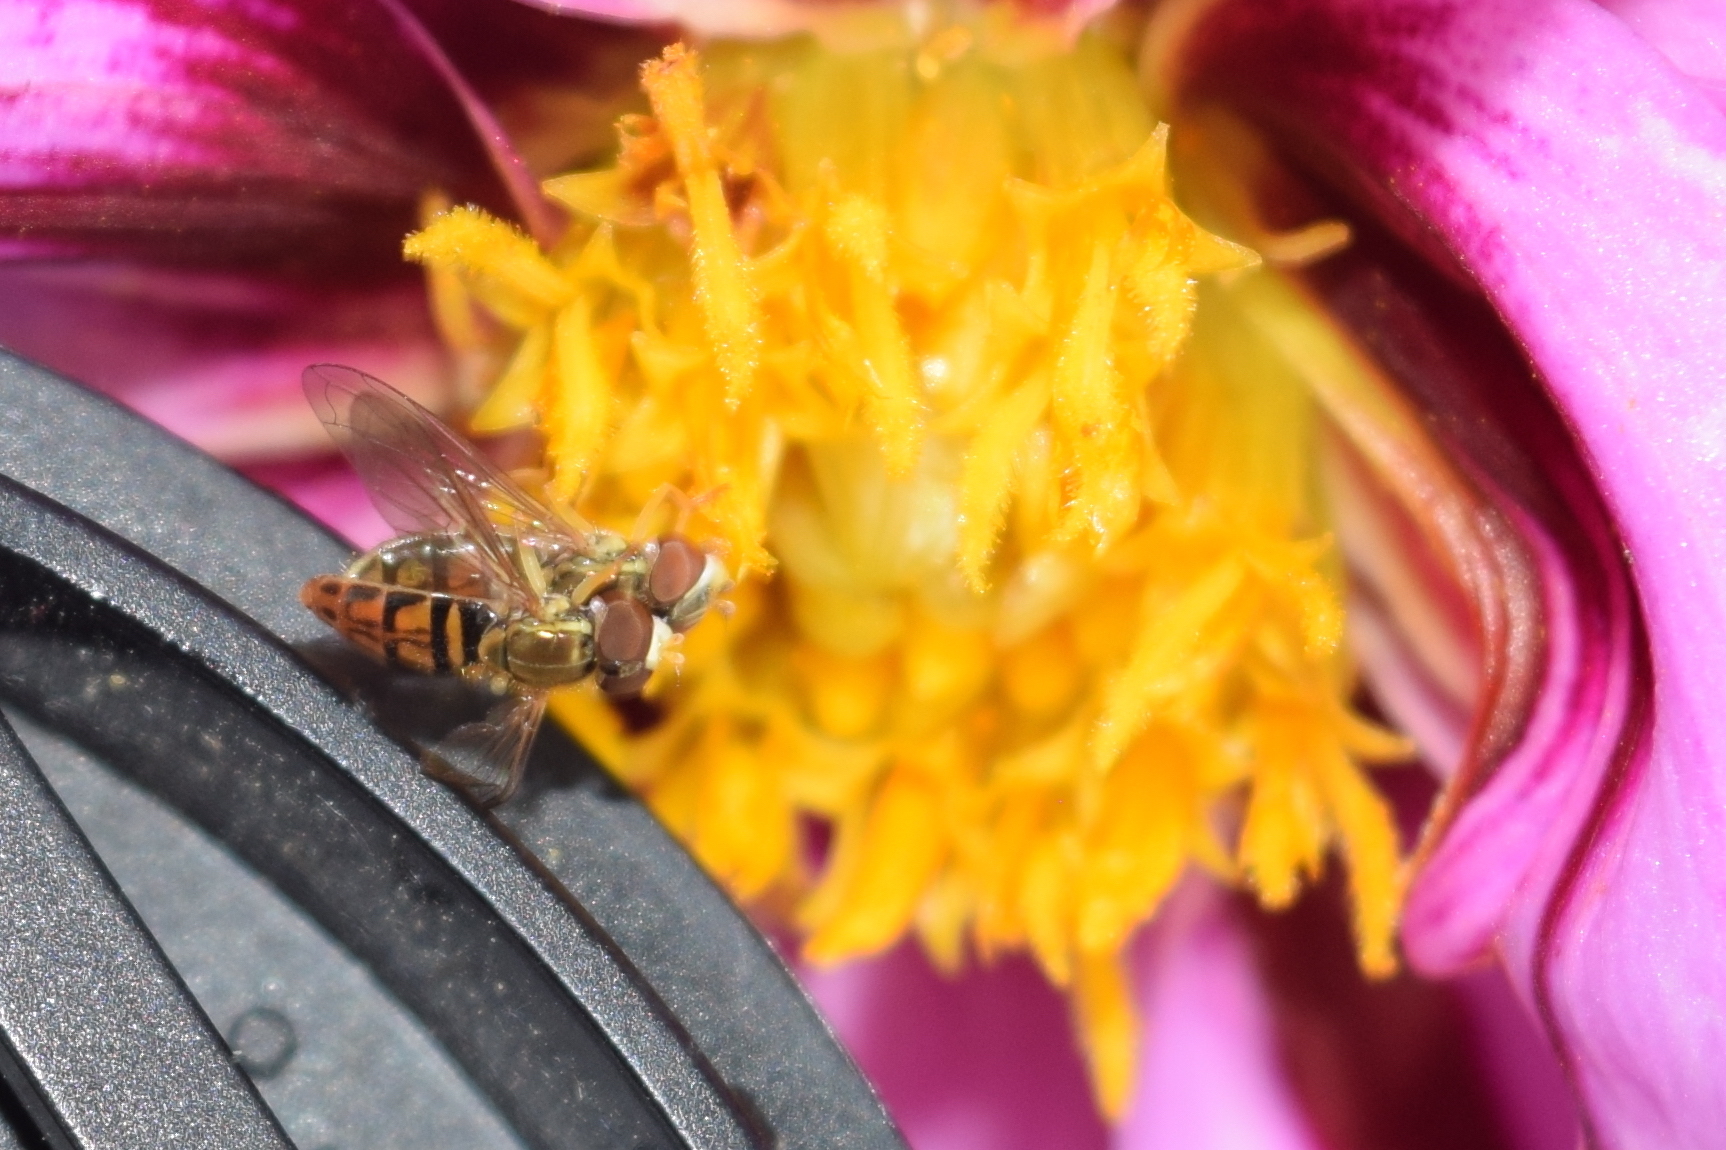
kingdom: Animalia
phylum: Arthropoda
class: Insecta
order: Diptera
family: Syrphidae
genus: Toxomerus
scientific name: Toxomerus marginatus
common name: Syrphid fly
